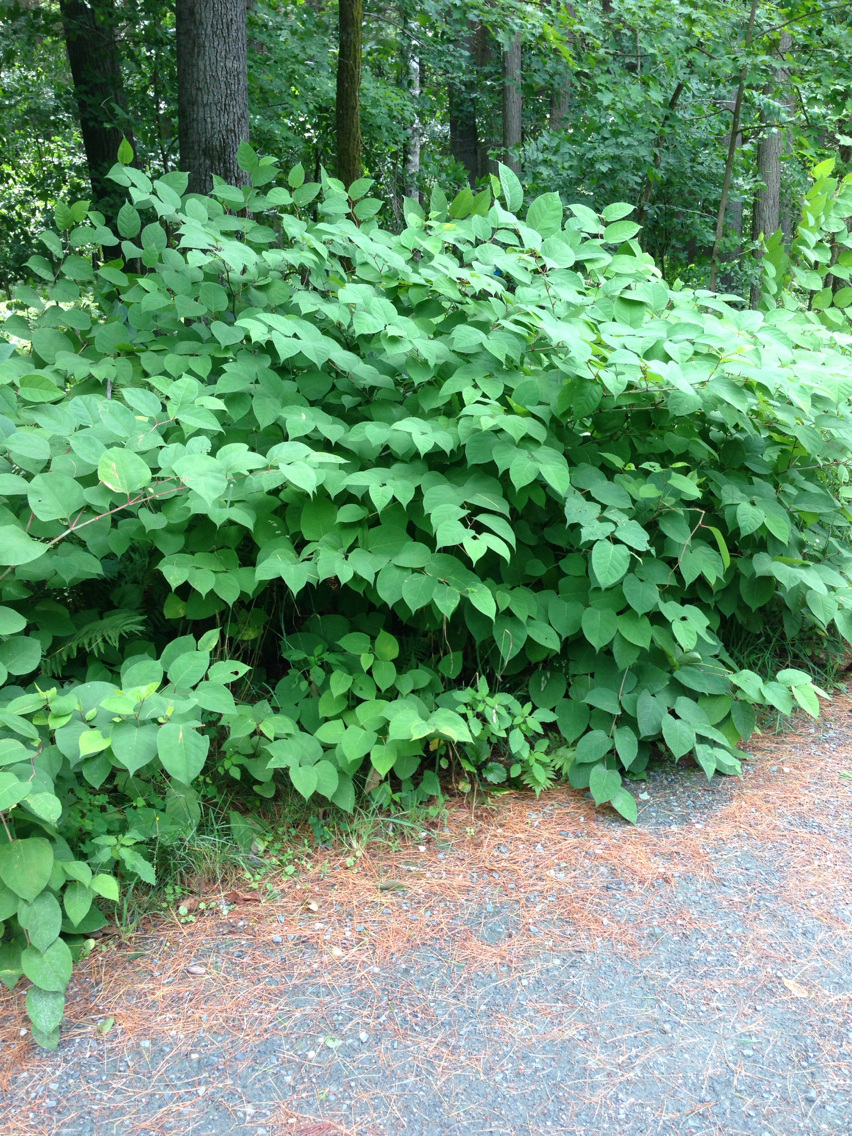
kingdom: Plantae
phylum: Tracheophyta
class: Magnoliopsida
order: Caryophyllales
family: Polygonaceae
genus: Reynoutria
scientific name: Reynoutria japonica
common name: Japanese knotweed
